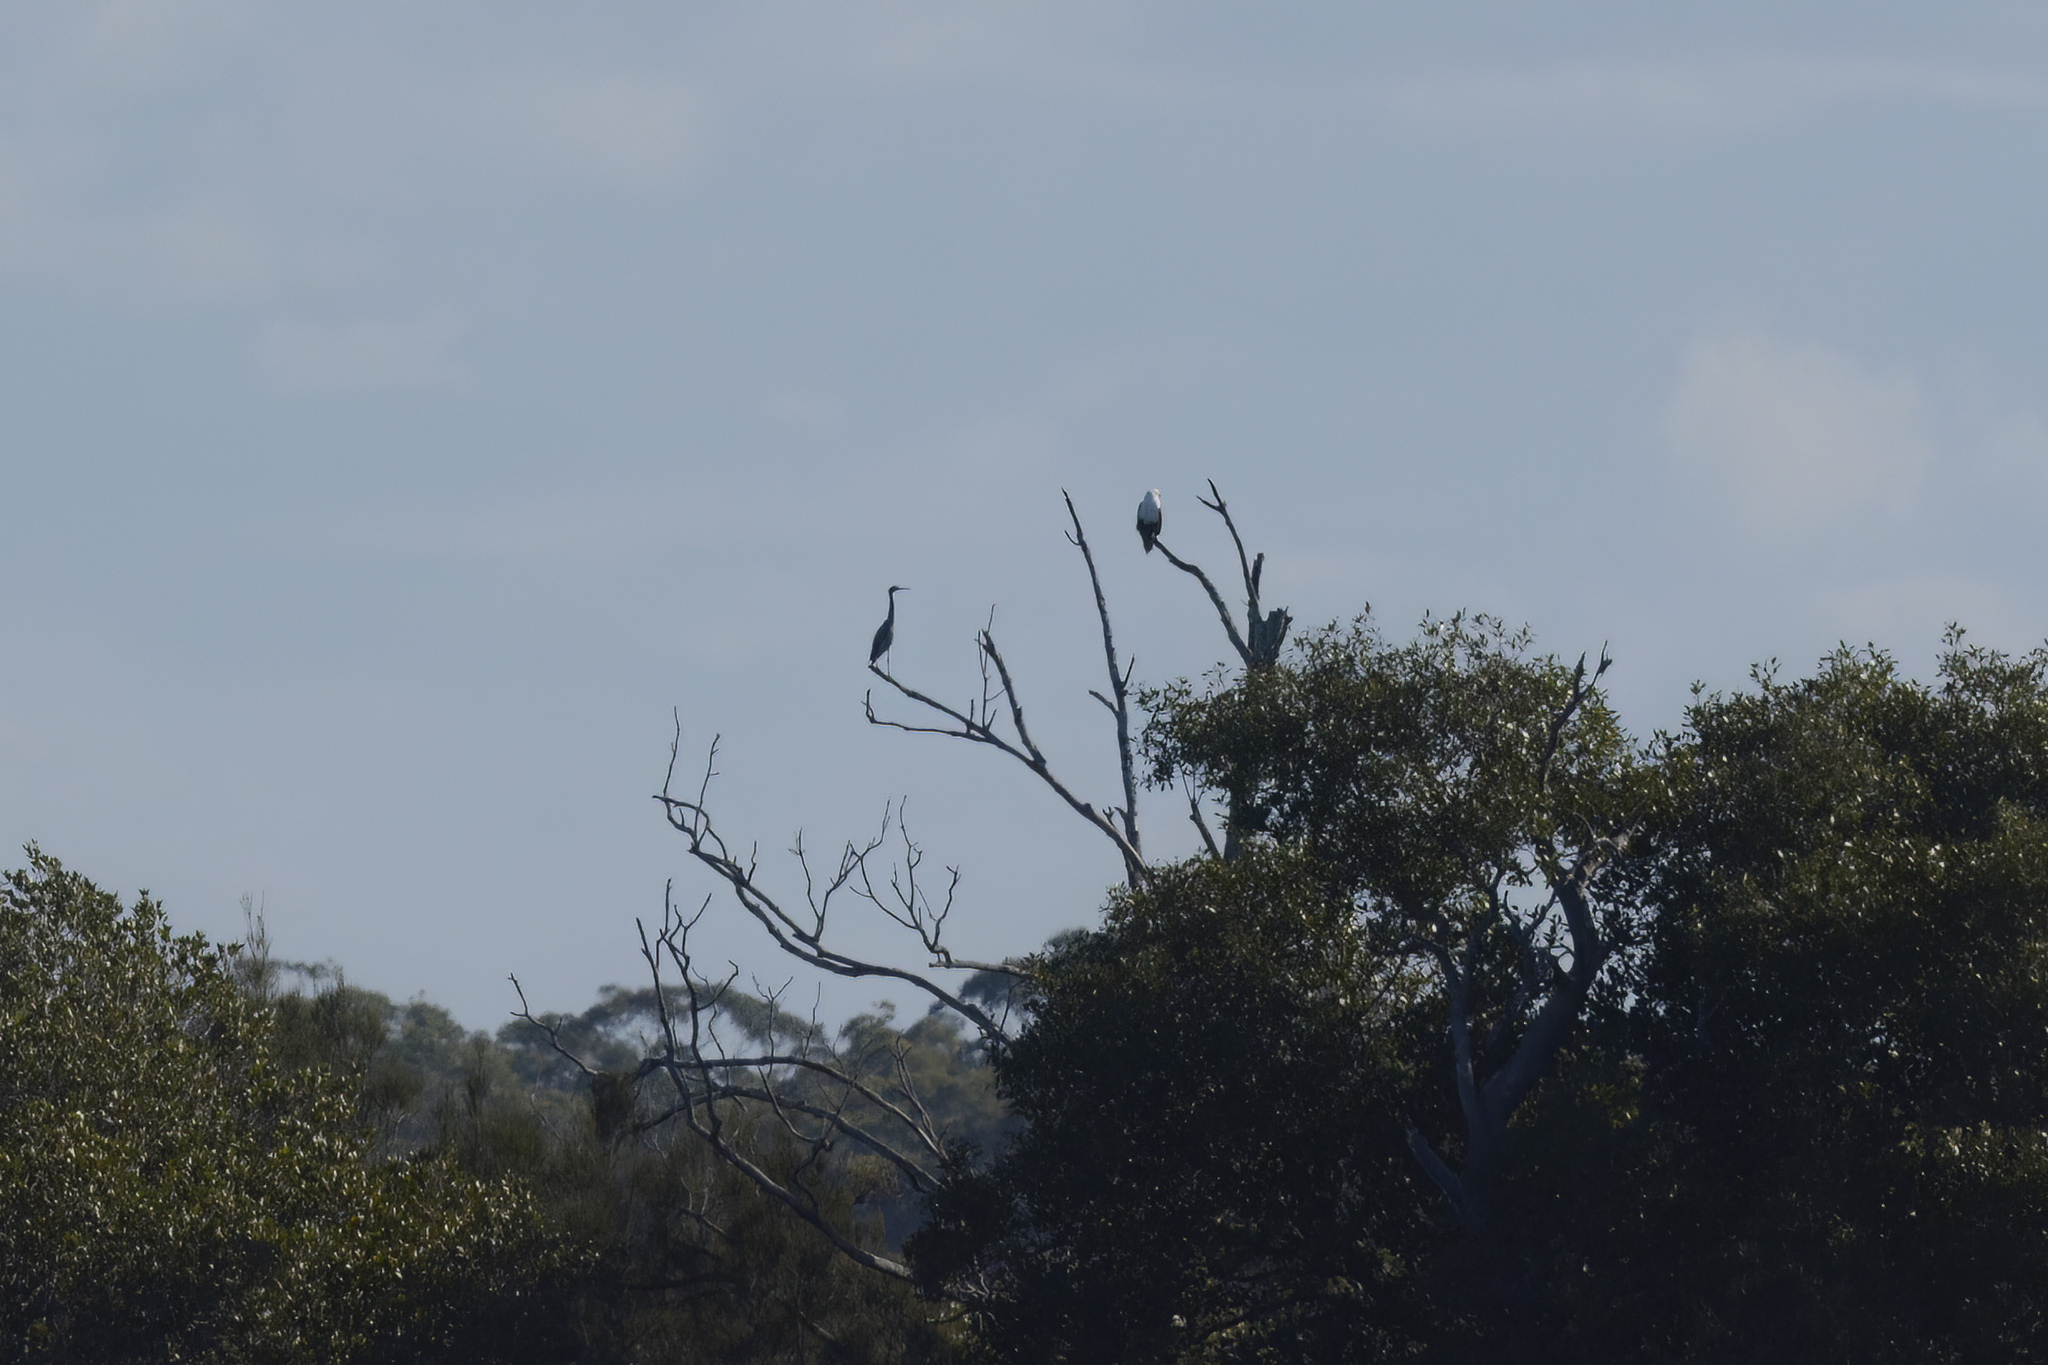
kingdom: Animalia
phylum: Chordata
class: Aves
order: Accipitriformes
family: Accipitridae
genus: Haliastur
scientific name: Haliastur indus
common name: Brahminy kite
